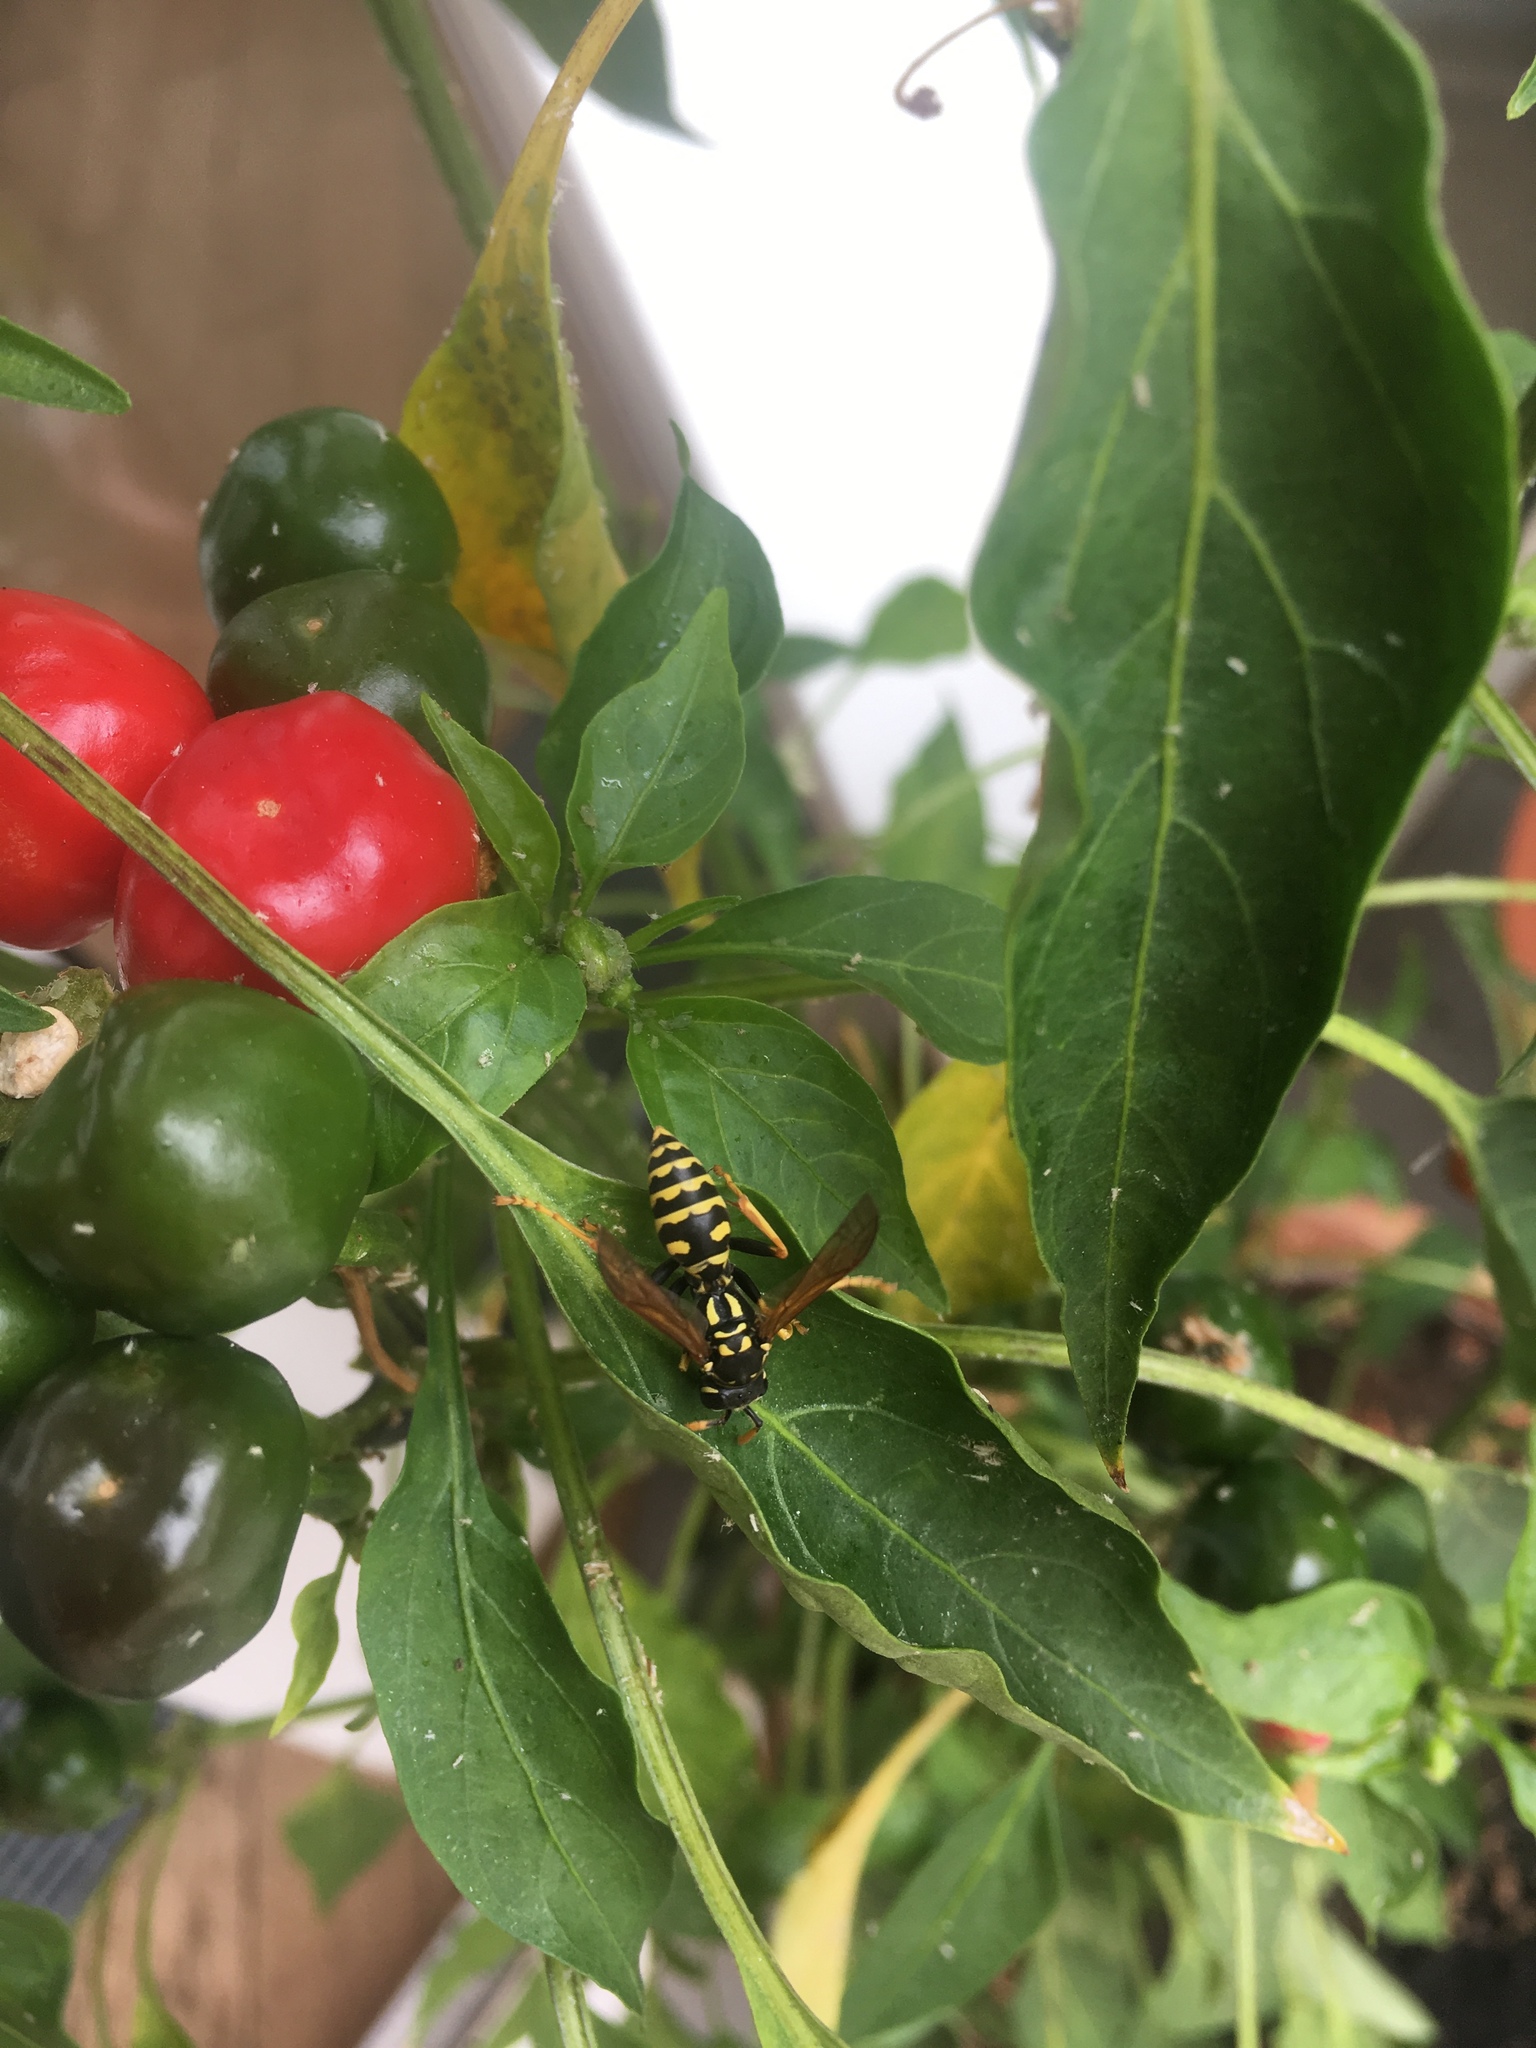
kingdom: Animalia
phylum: Arthropoda
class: Insecta
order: Hymenoptera
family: Eumenidae
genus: Polistes
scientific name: Polistes dominula
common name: Paper wasp
